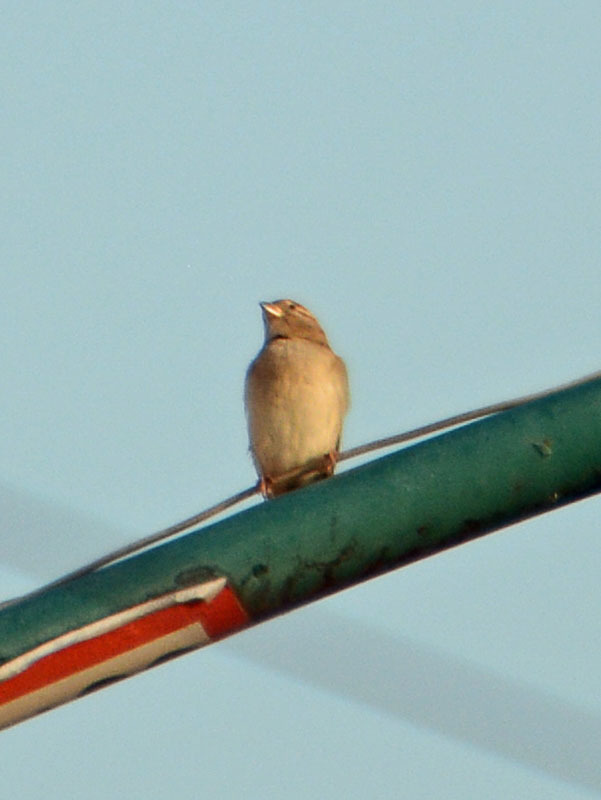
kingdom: Animalia
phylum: Chordata
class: Aves
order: Passeriformes
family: Passeridae
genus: Passer
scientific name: Passer domesticus
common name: House sparrow
